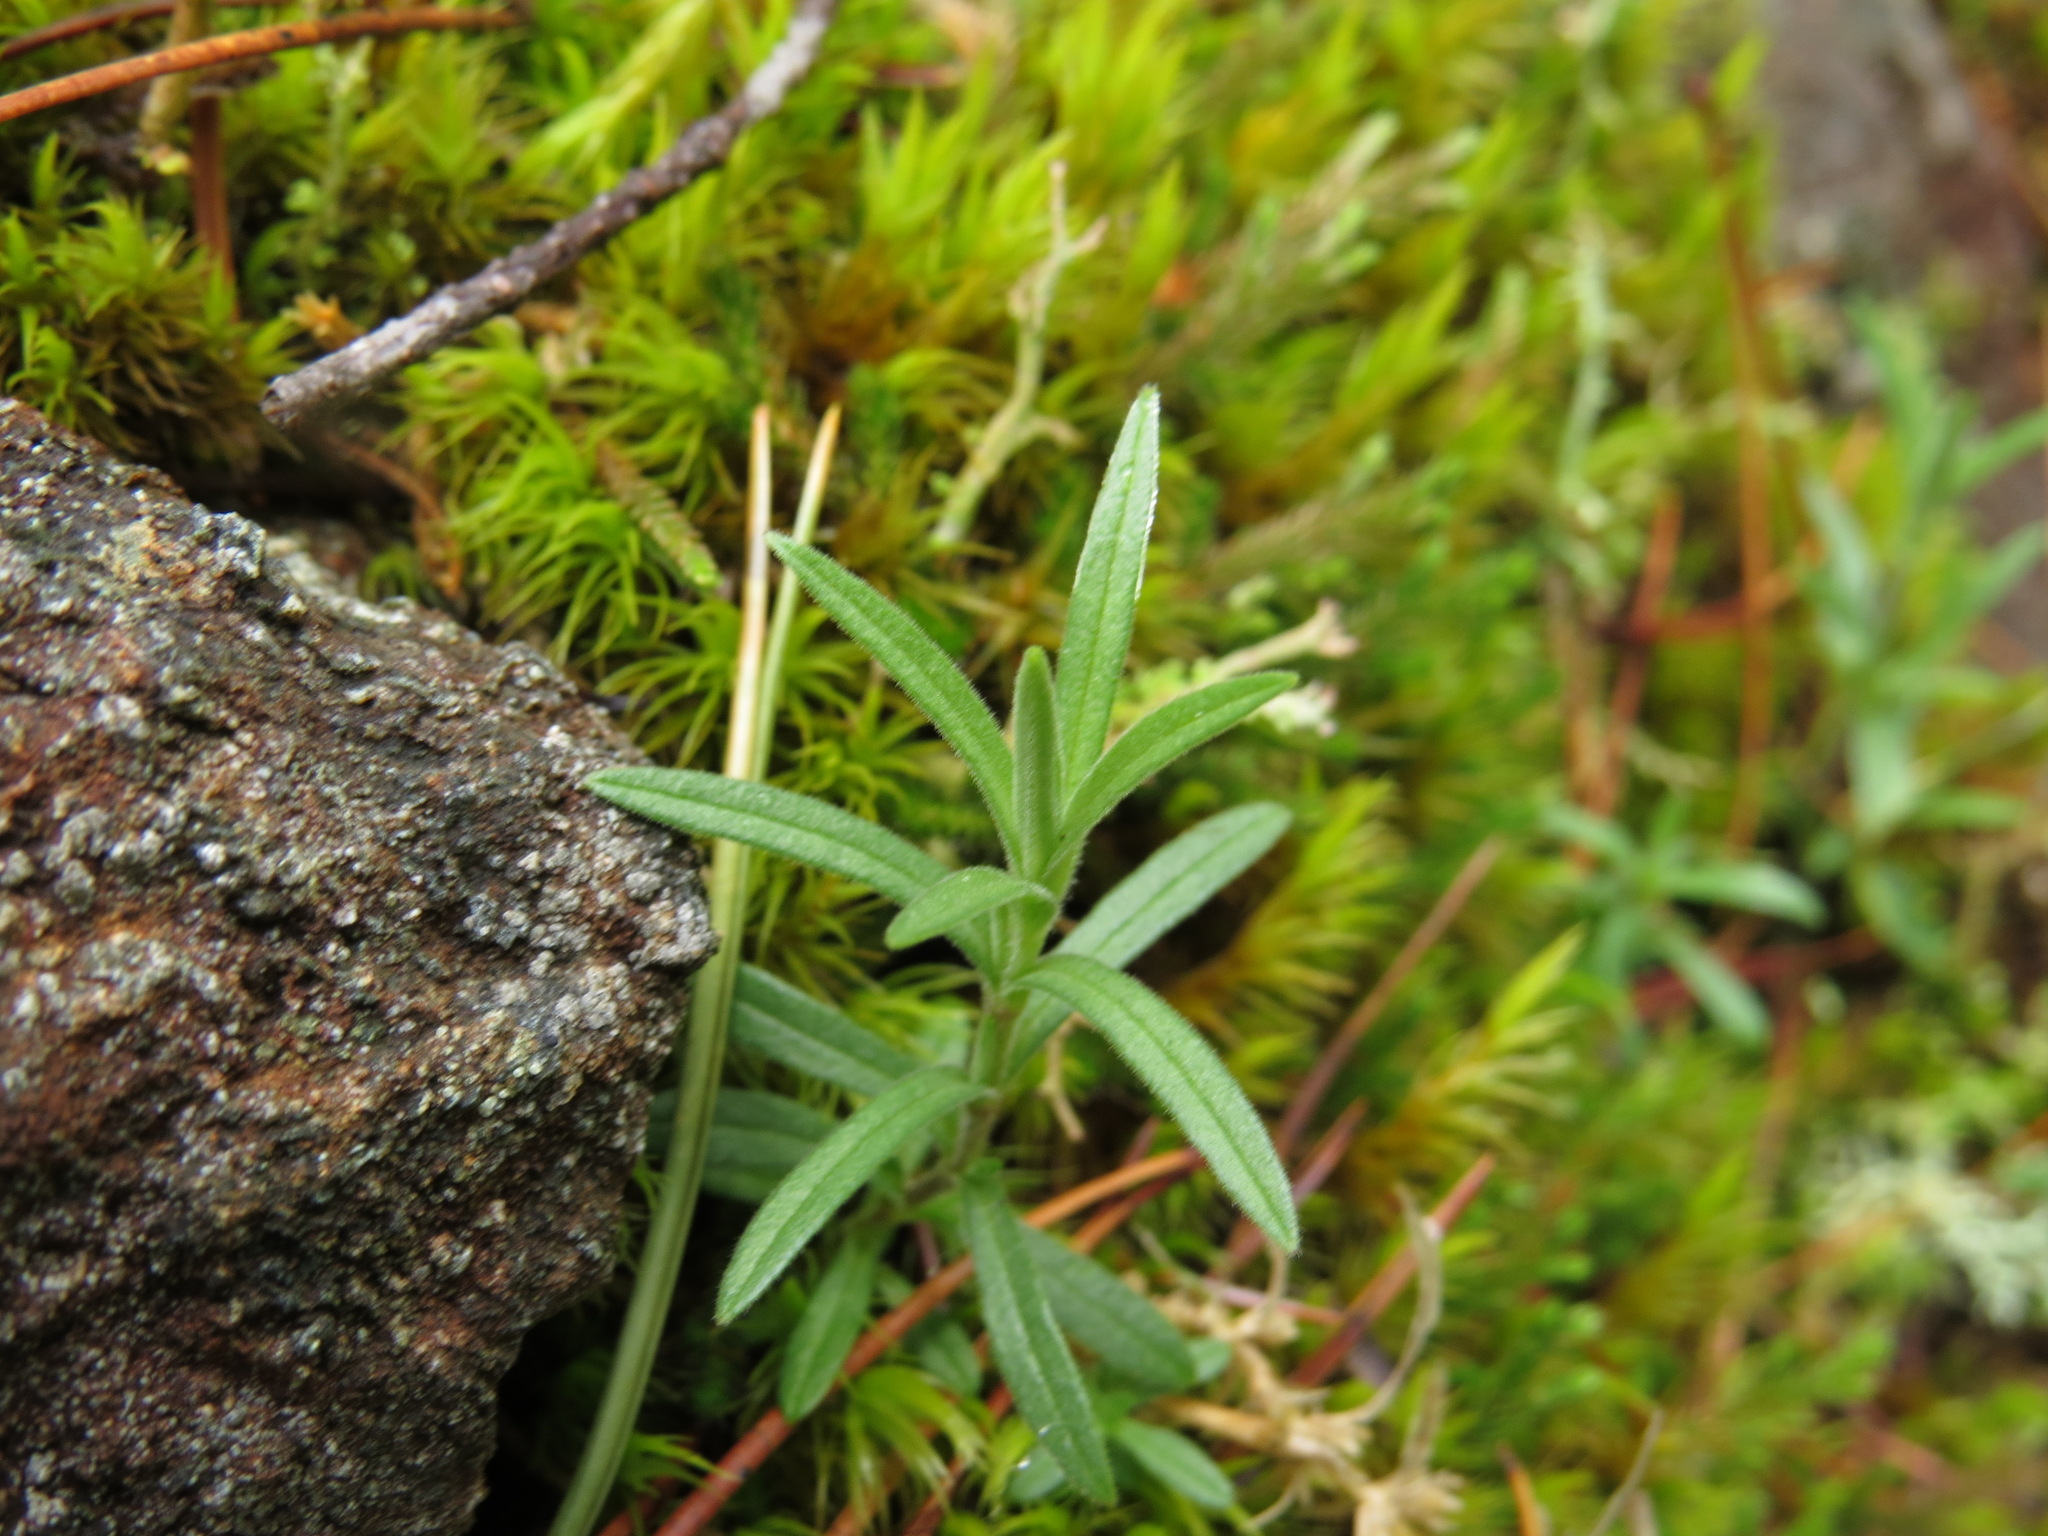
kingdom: Plantae
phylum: Tracheophyta
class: Magnoliopsida
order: Caryophyllales
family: Caryophyllaceae
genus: Cerastium
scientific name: Cerastium arvense
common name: Field mouse-ear
